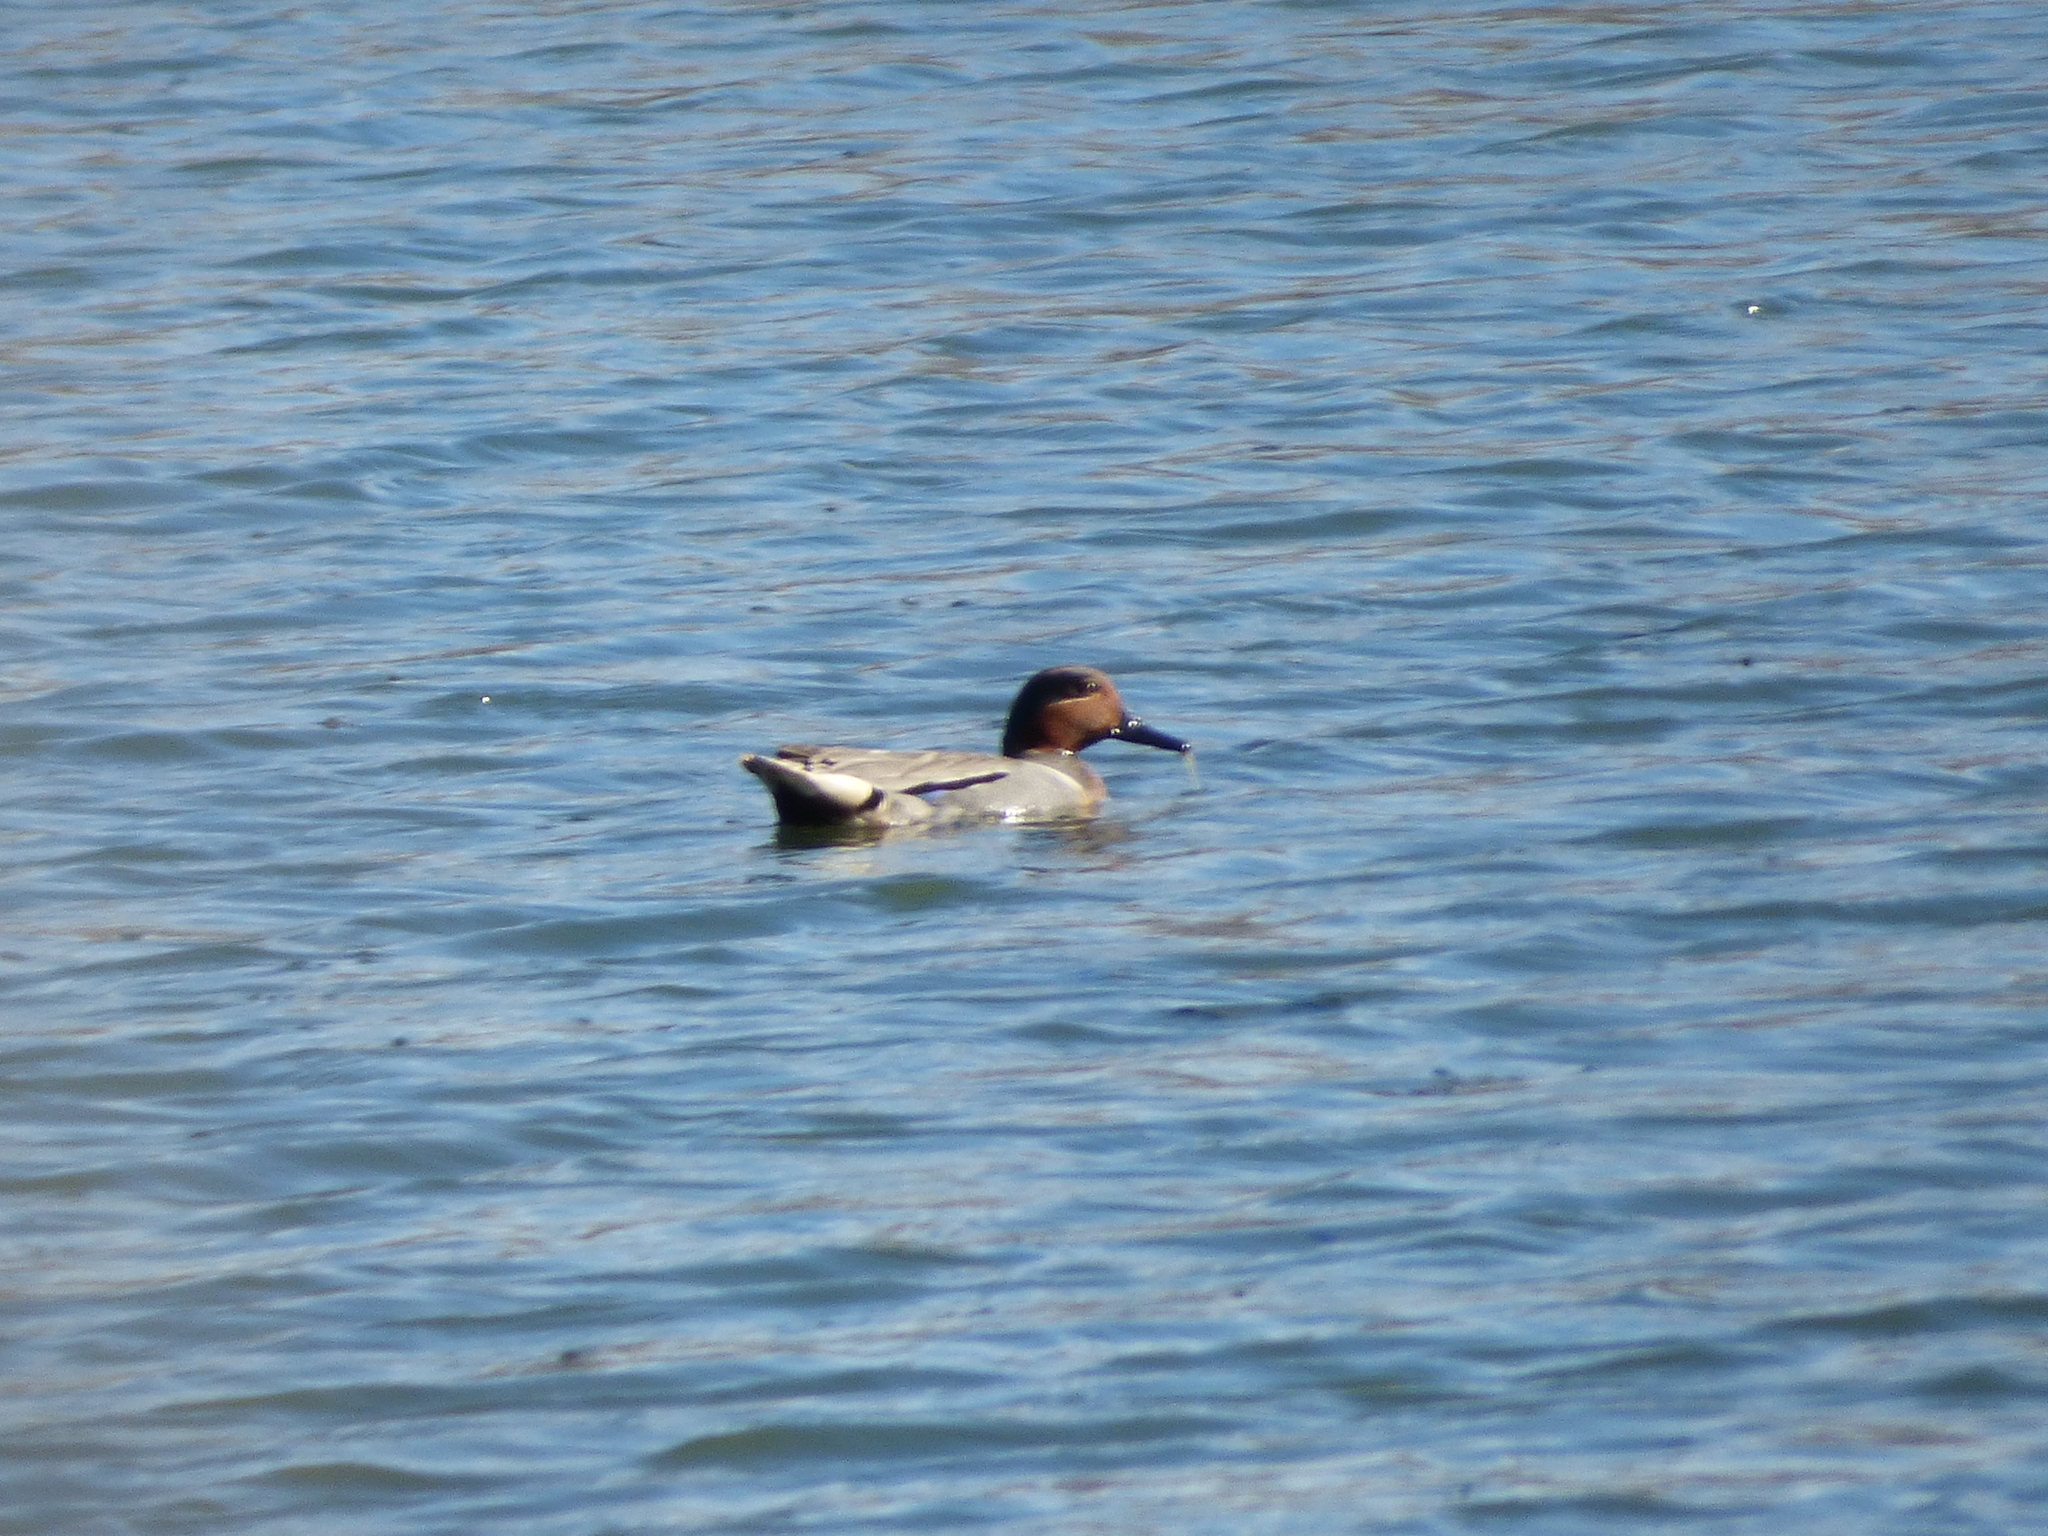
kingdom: Animalia
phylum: Chordata
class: Aves
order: Anseriformes
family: Anatidae
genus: Anas
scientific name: Anas crecca
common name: Eurasian teal
